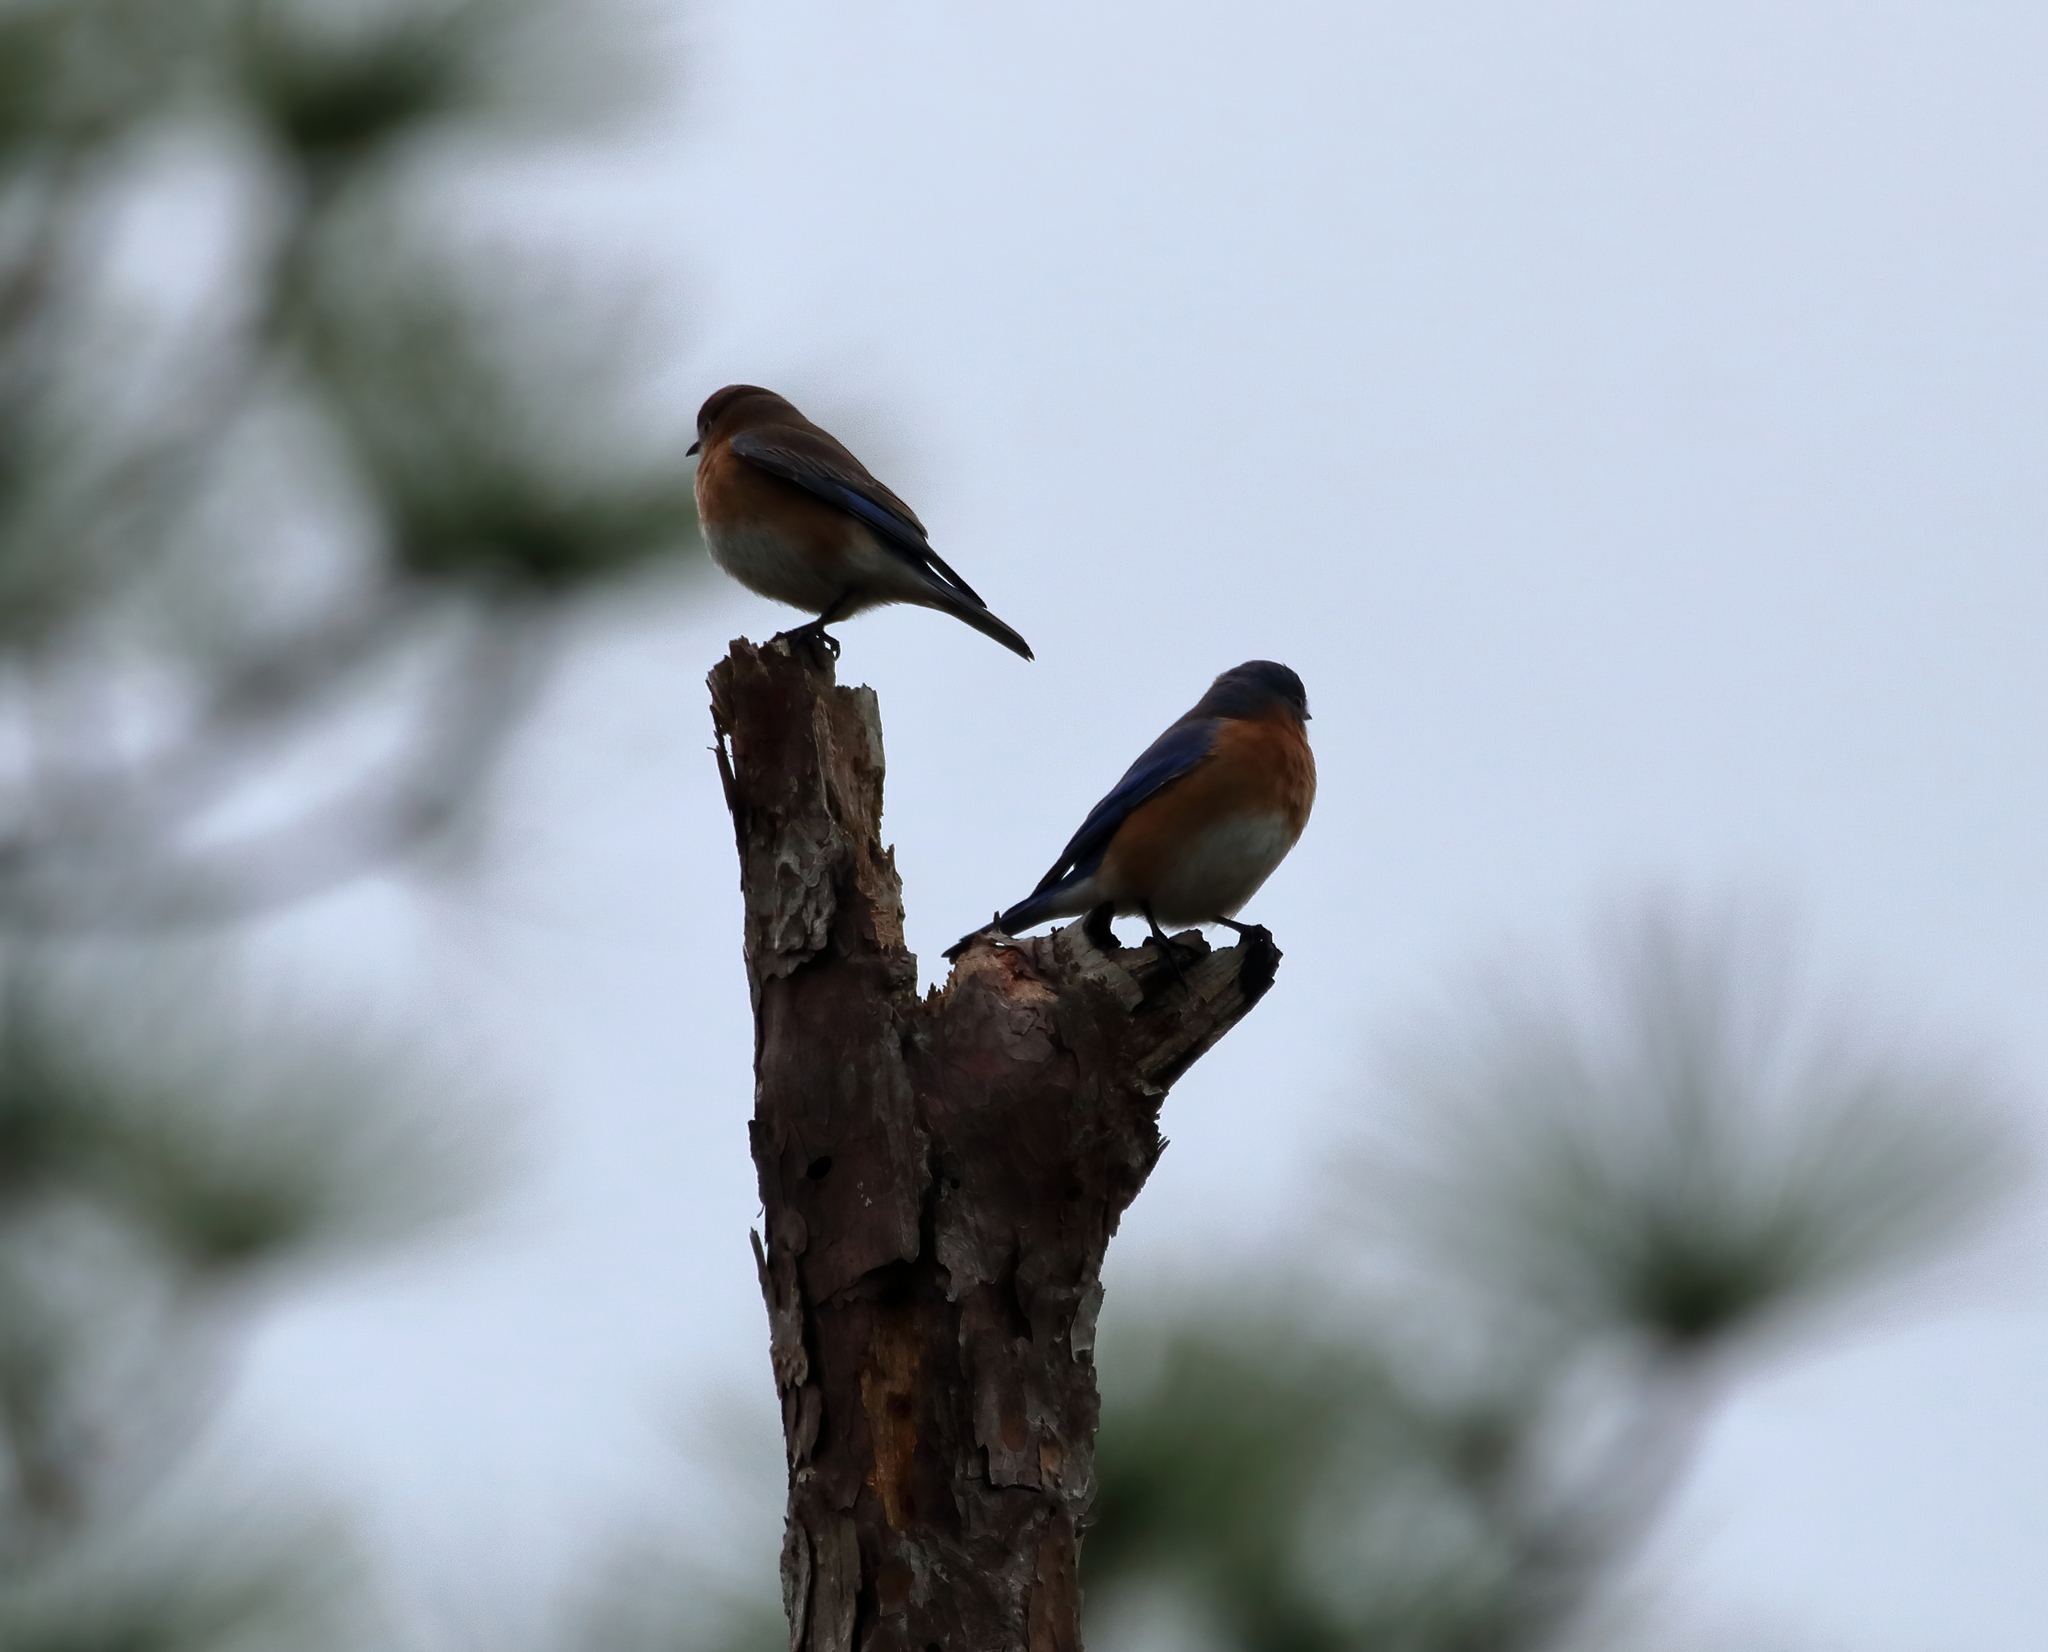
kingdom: Animalia
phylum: Chordata
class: Aves
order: Passeriformes
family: Turdidae
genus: Sialia
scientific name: Sialia sialis
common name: Eastern bluebird
